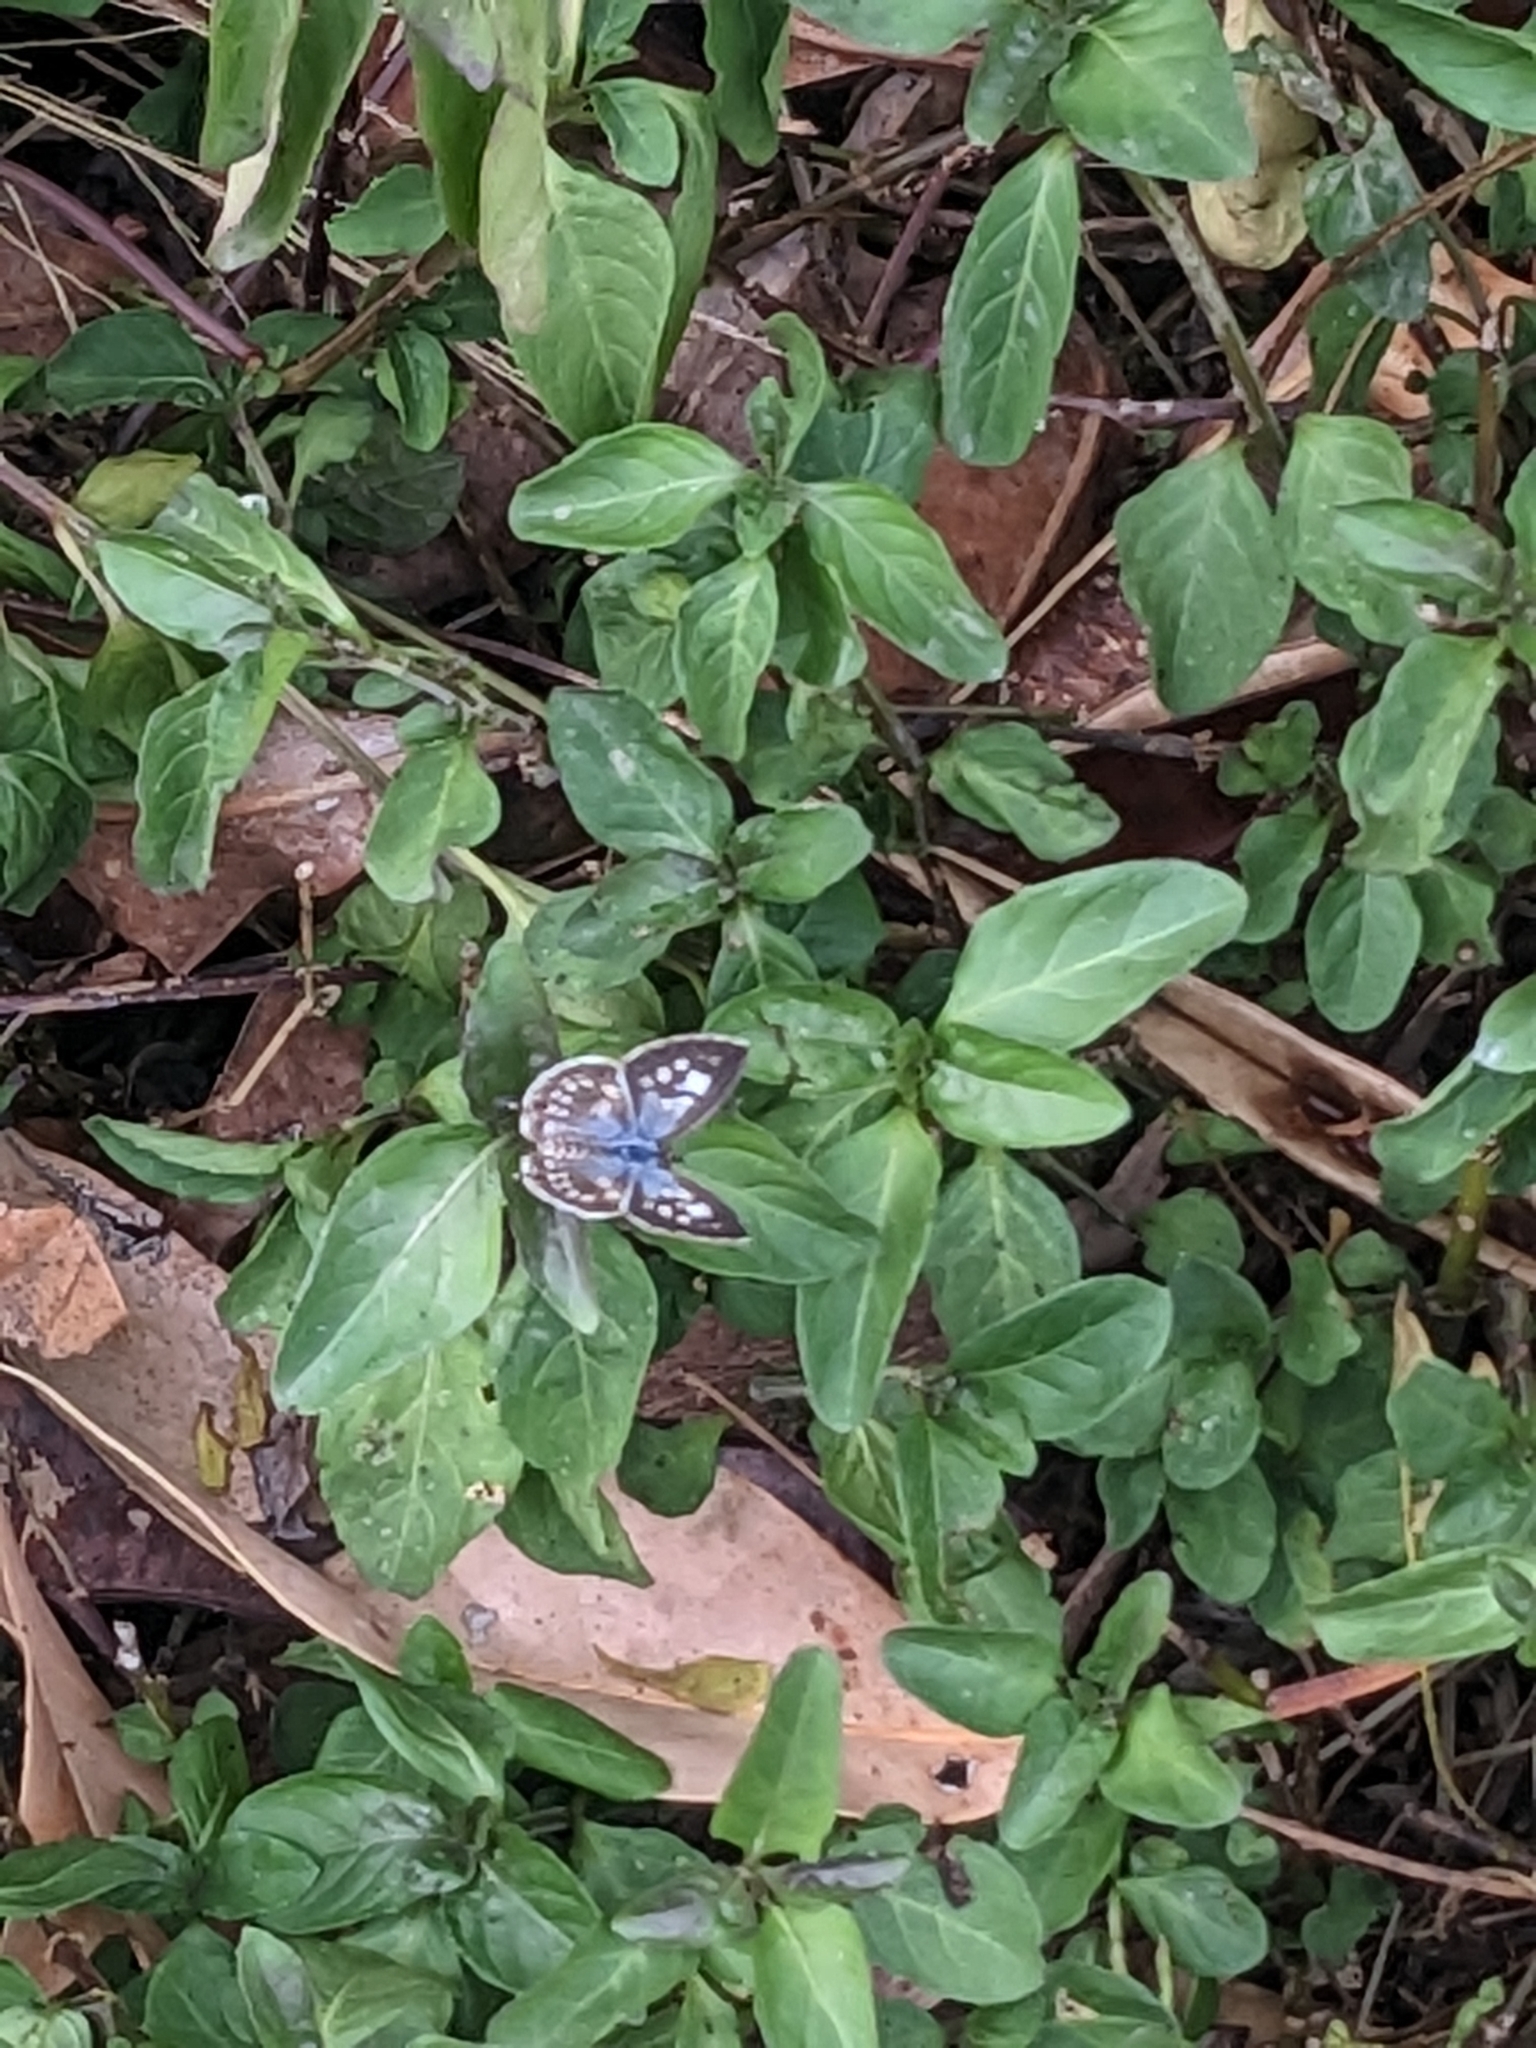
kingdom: Animalia
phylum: Arthropoda
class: Insecta
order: Lepidoptera
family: Lycaenidae
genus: Leptotes
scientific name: Leptotes plinius
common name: Zebra blue
